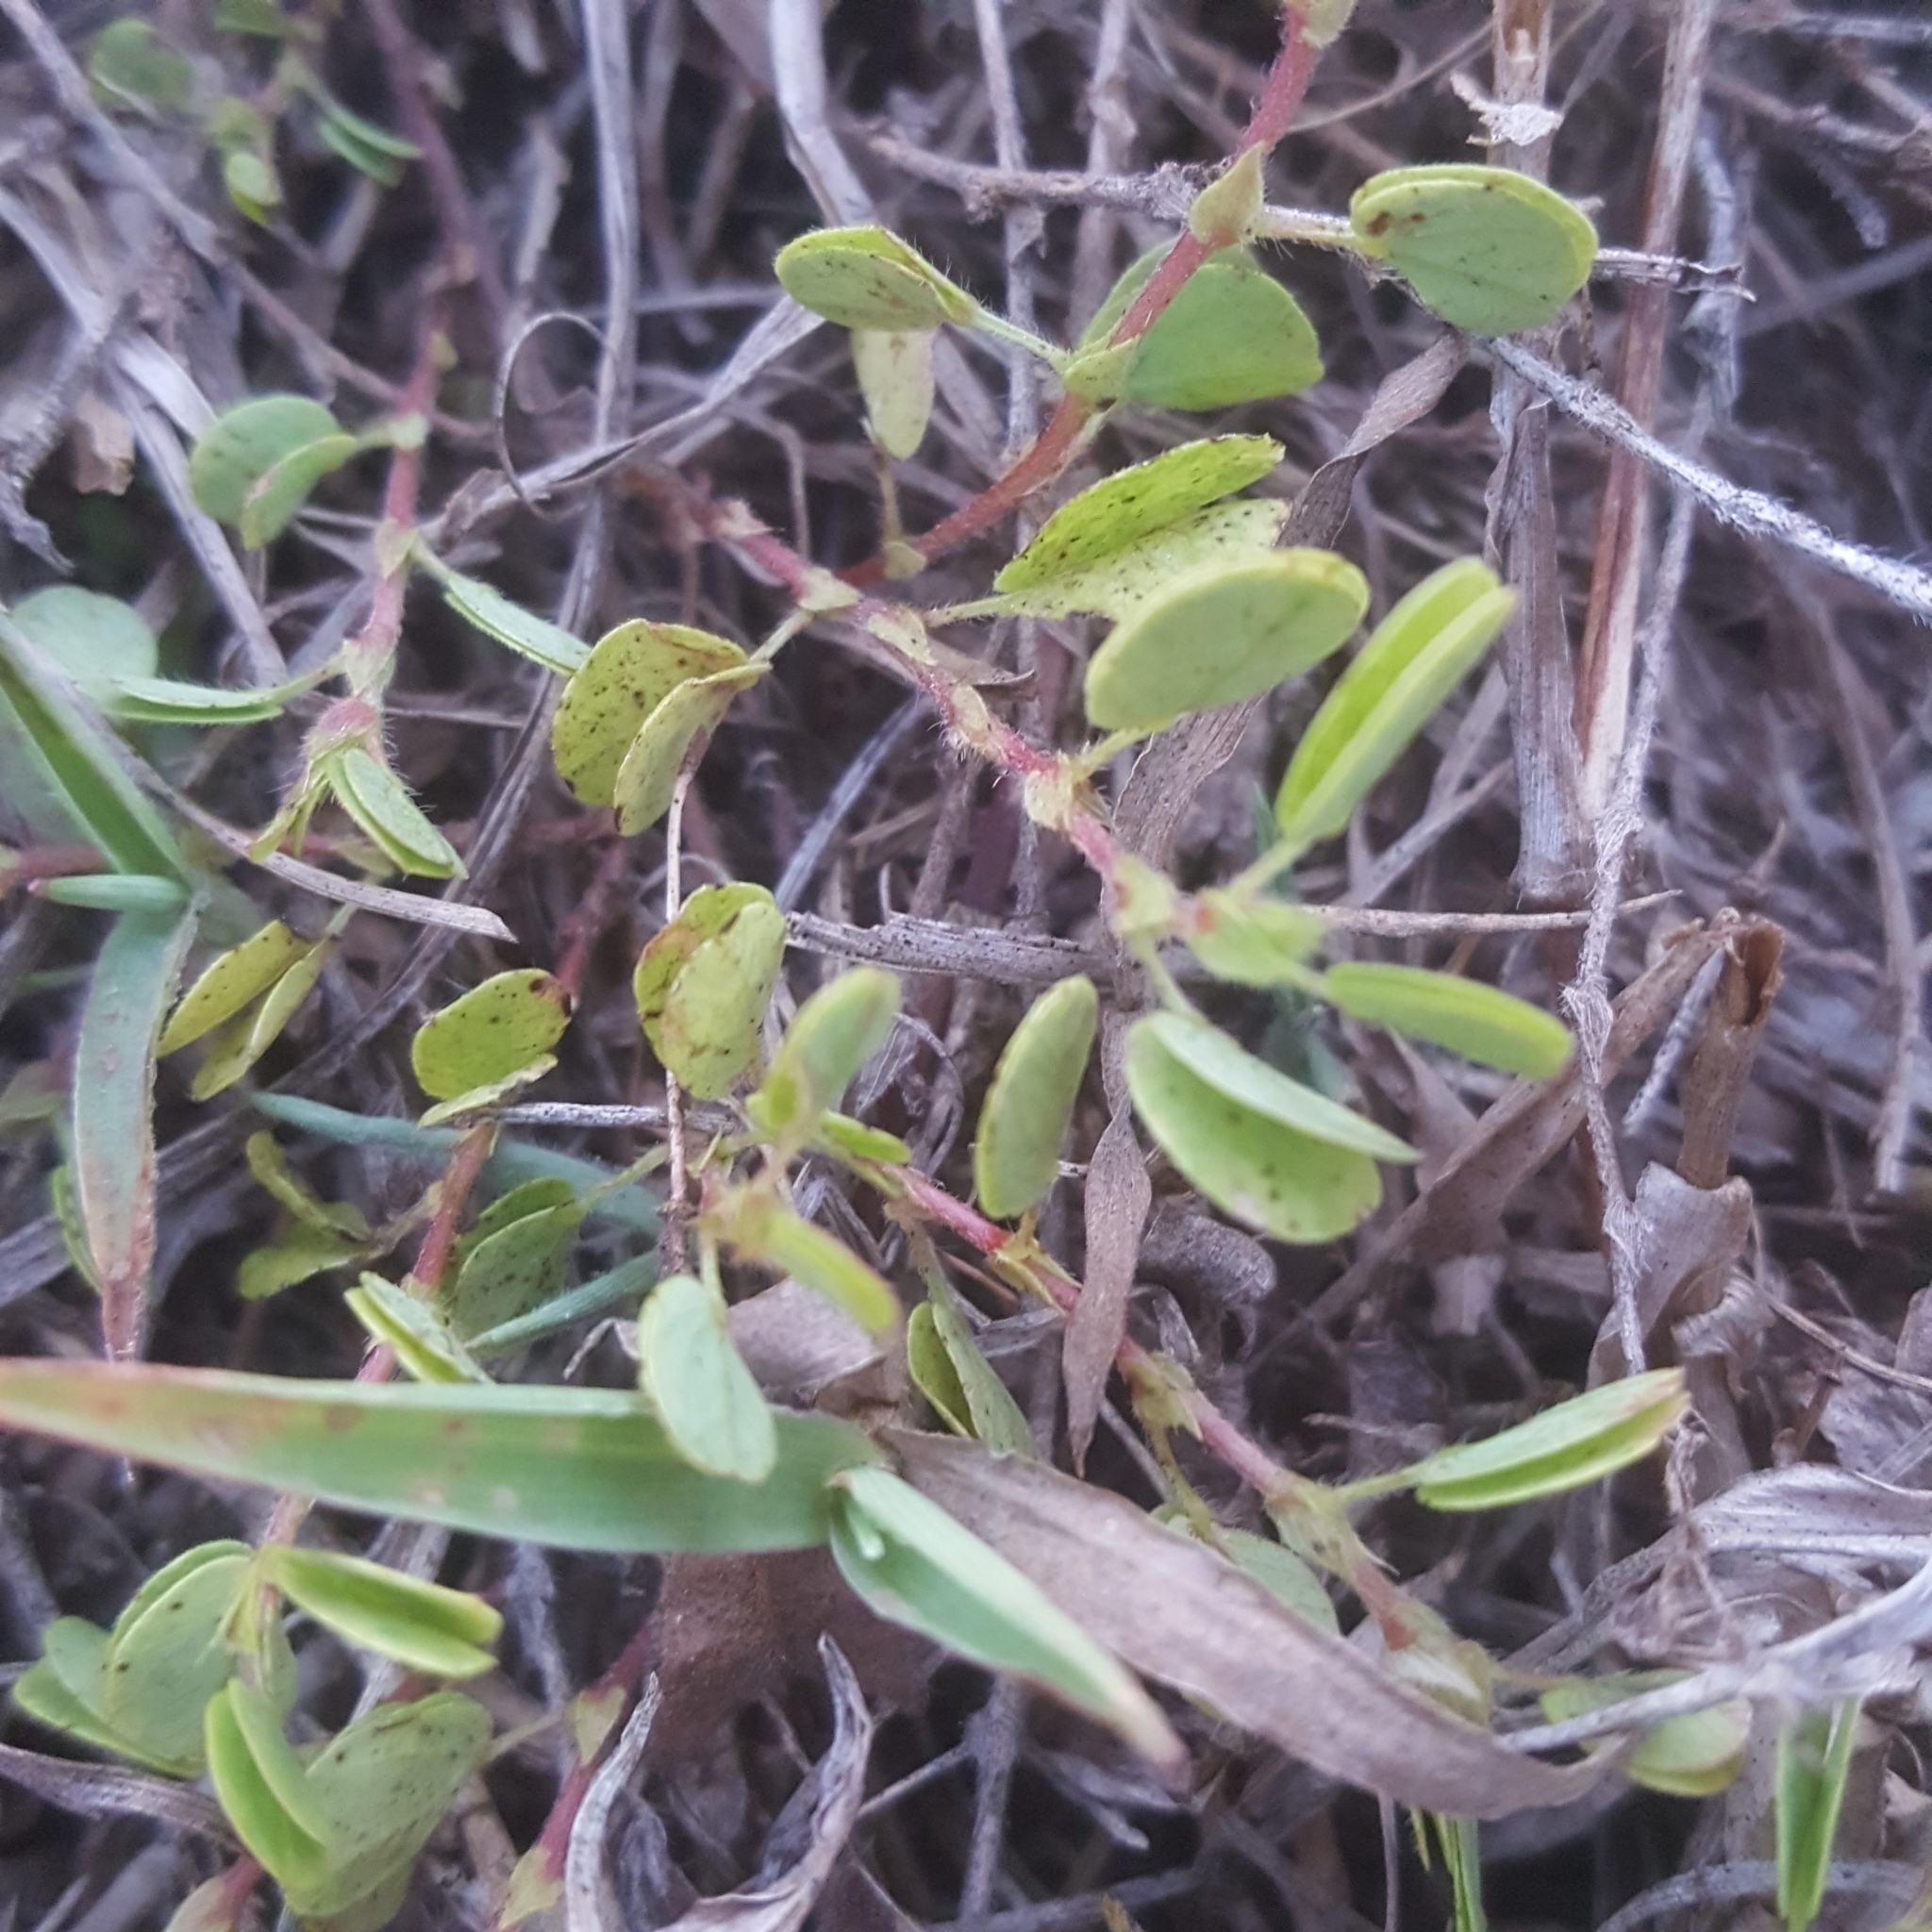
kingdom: Plantae
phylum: Tracheophyta
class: Magnoliopsida
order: Fabales
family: Fabaceae
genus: Chamaecrista
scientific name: Chamaecrista rotundifolia
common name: Round-leaf cassia
